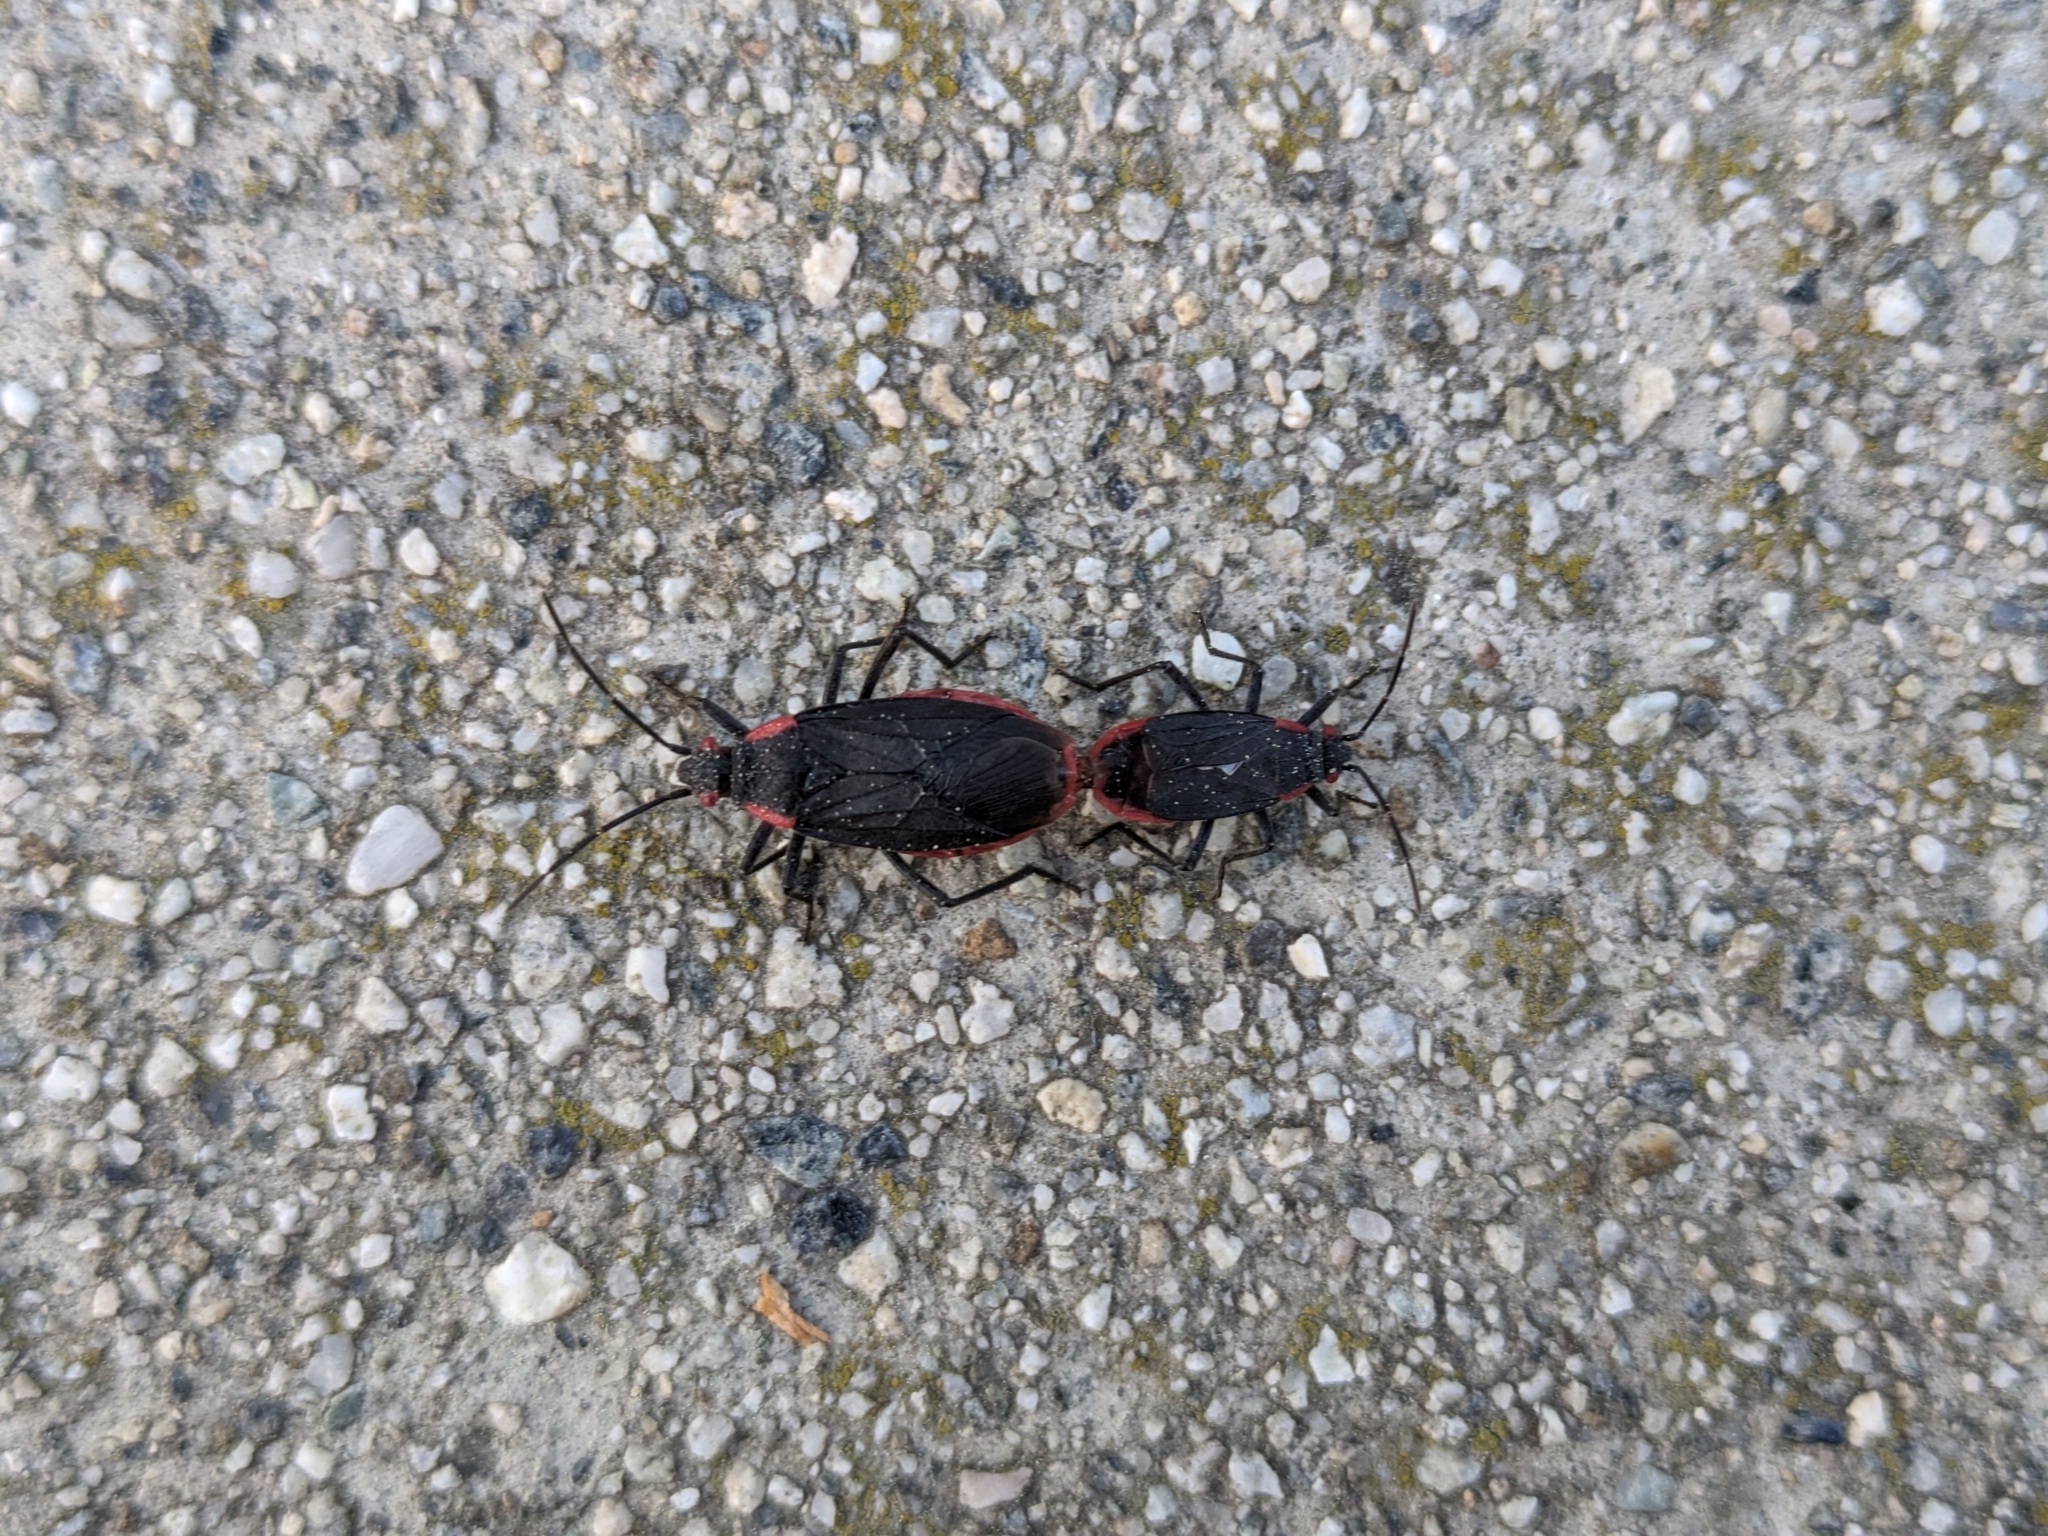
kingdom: Animalia
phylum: Arthropoda
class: Insecta
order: Hemiptera
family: Rhopalidae
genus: Jadera
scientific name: Jadera haematoloma
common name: Red-shouldered bug
